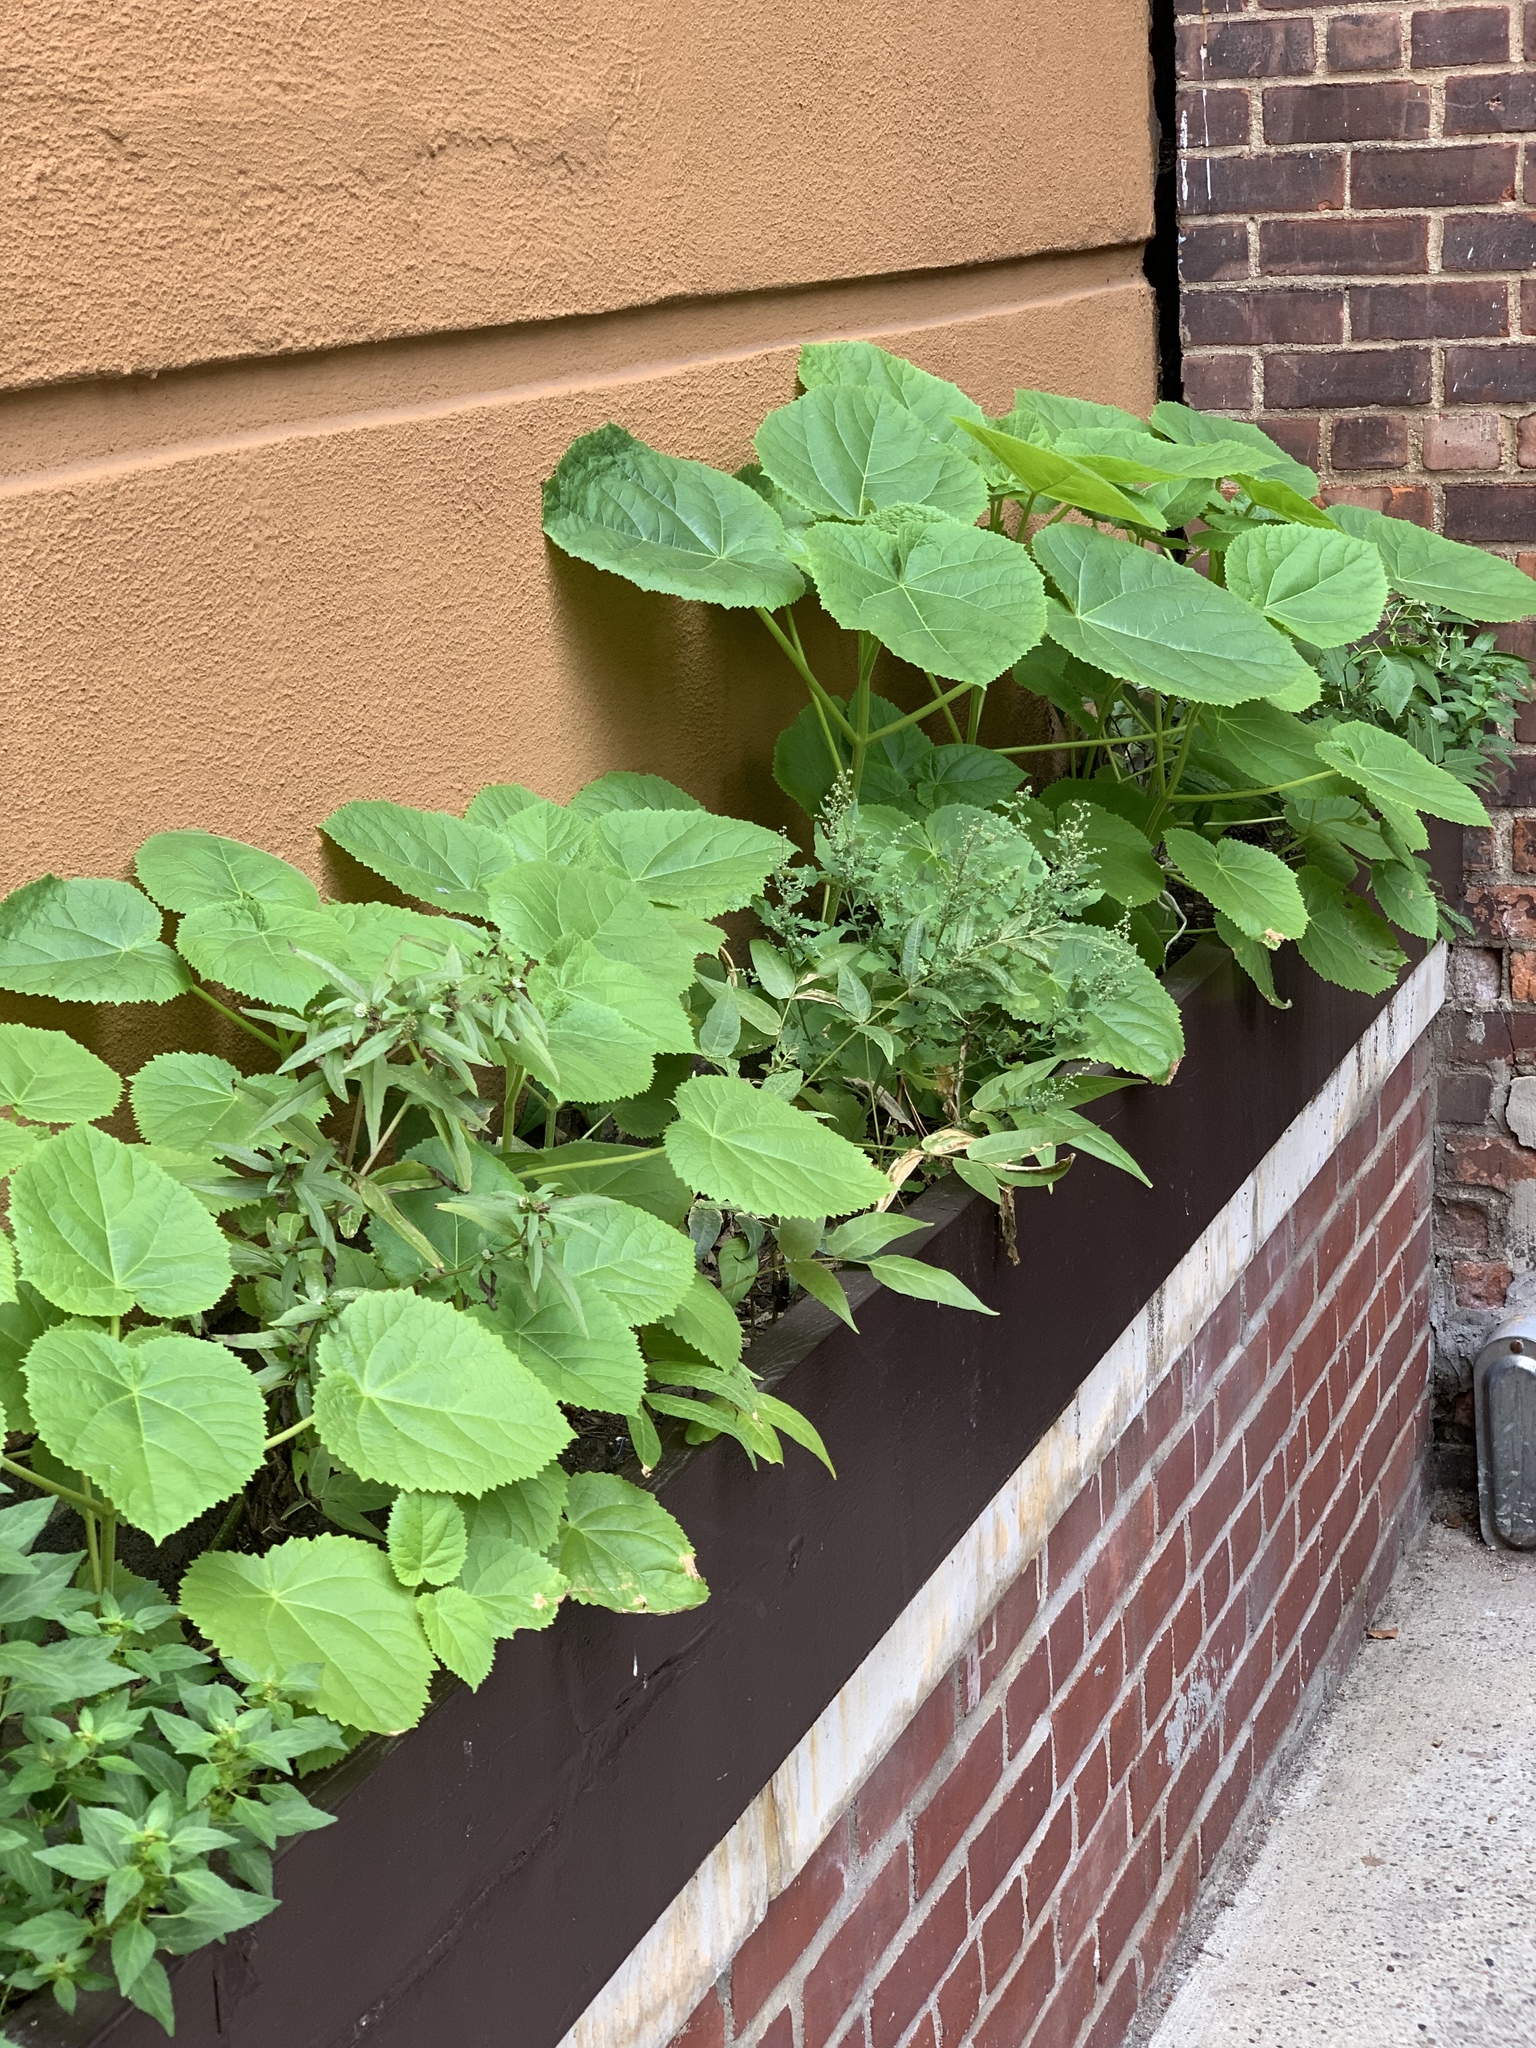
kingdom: Plantae
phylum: Tracheophyta
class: Magnoliopsida
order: Lamiales
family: Paulowniaceae
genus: Paulownia
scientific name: Paulownia tomentosa
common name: Foxglove-tree
